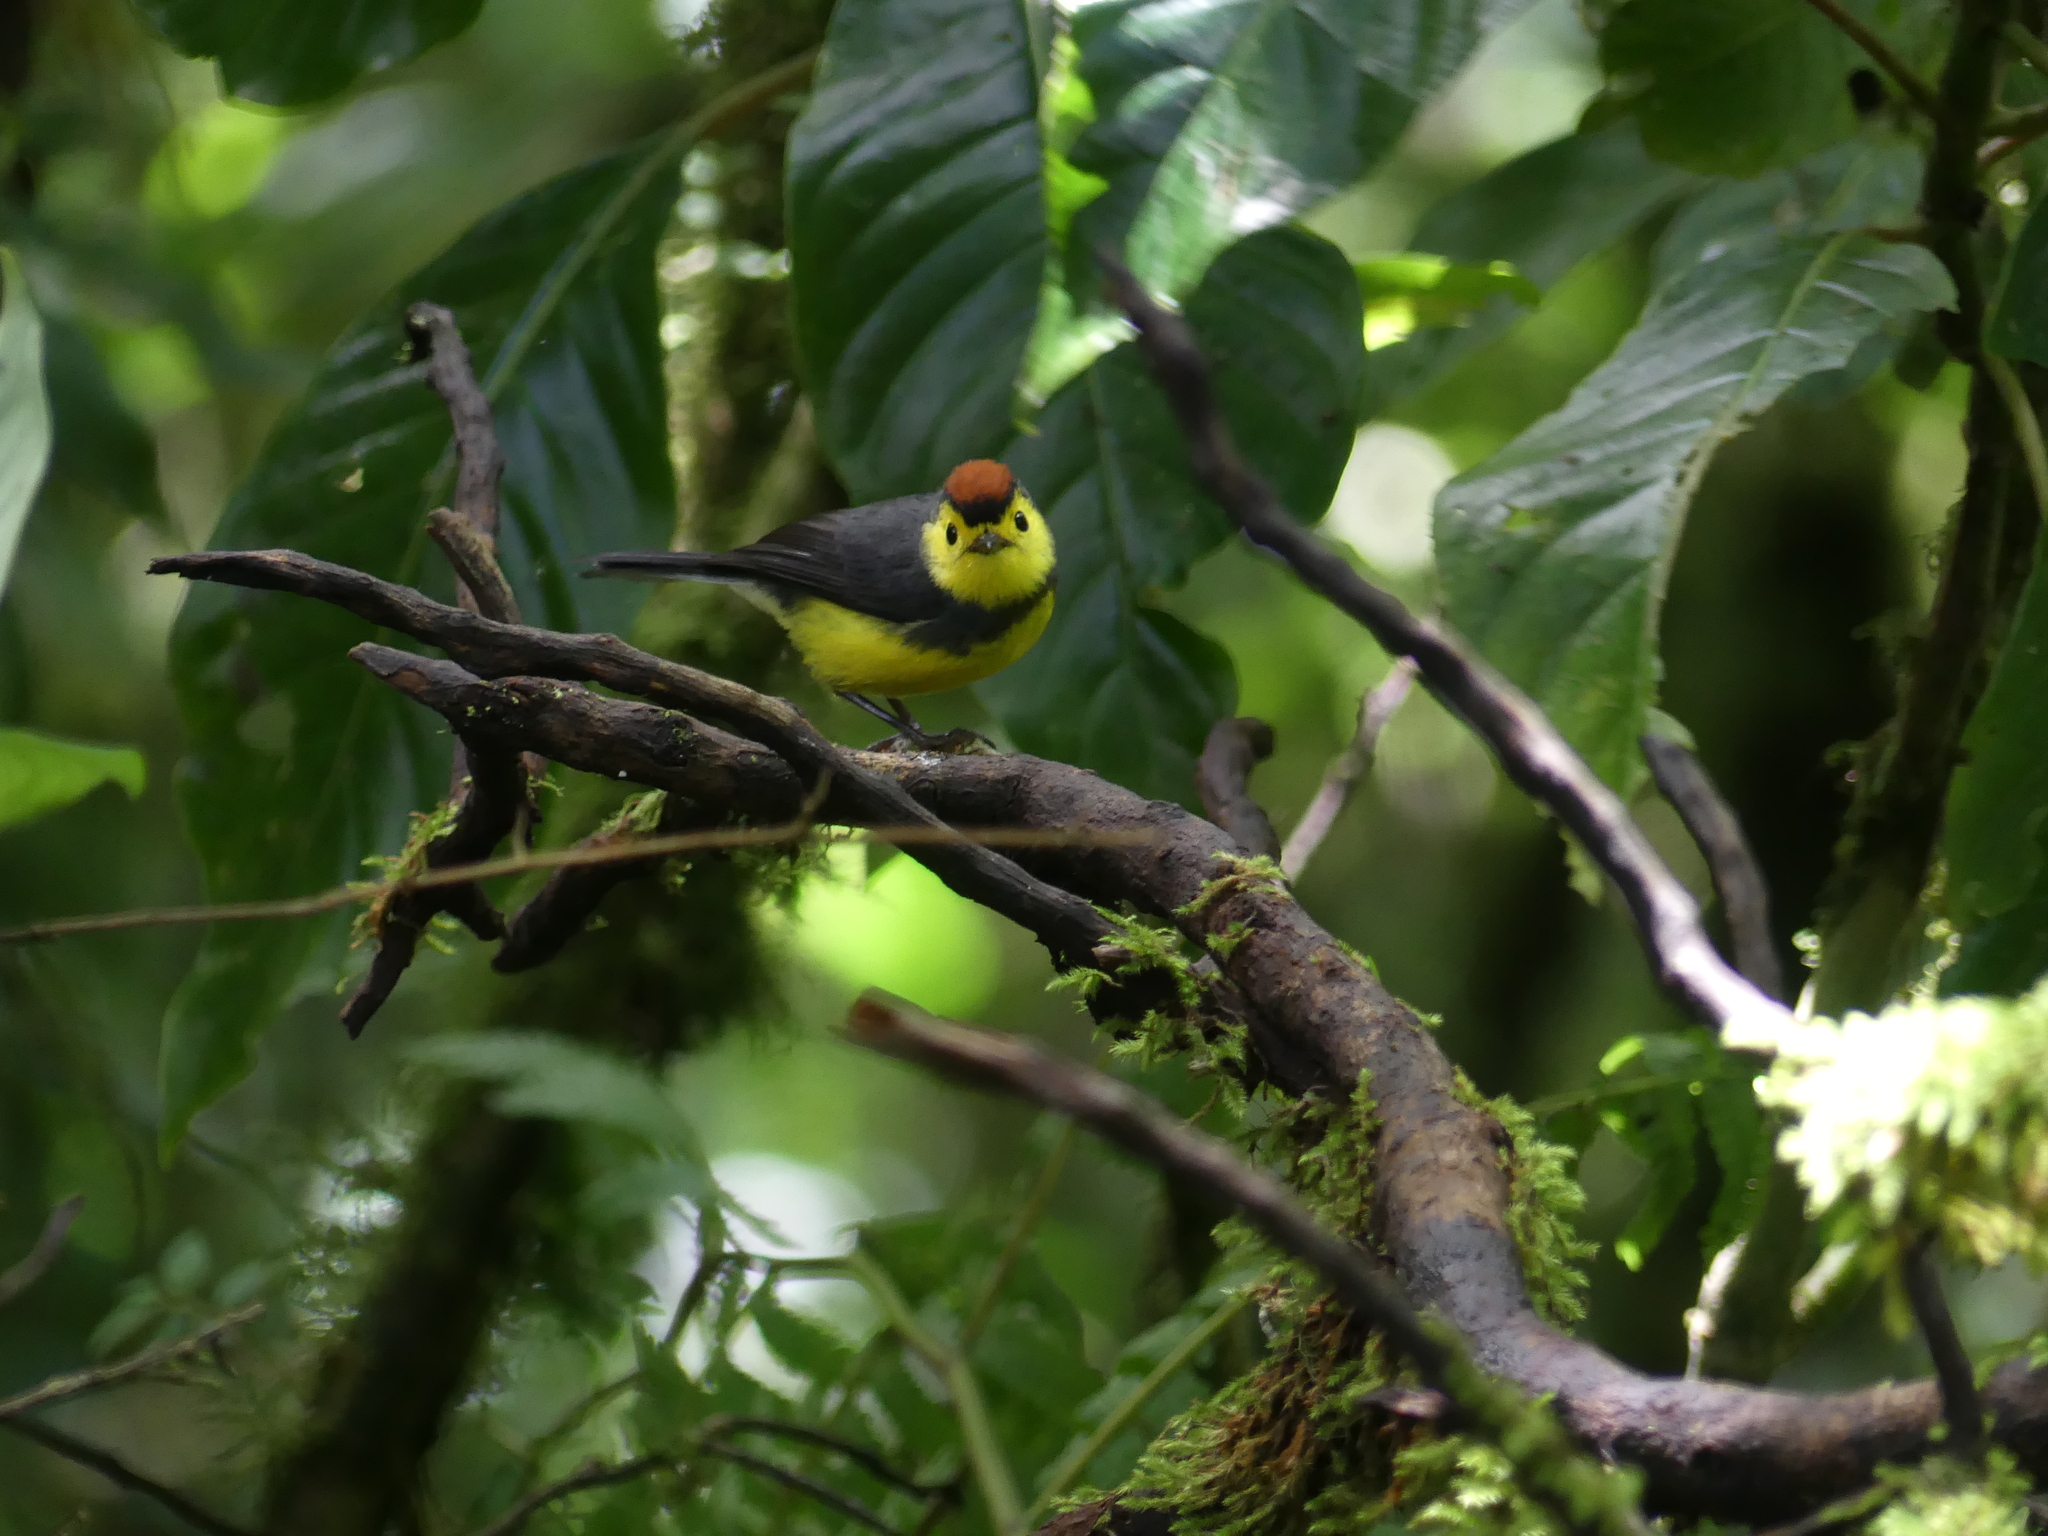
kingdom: Animalia
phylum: Chordata
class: Aves
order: Passeriformes
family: Parulidae
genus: Myioborus
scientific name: Myioborus torquatus
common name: Collared whitestart
